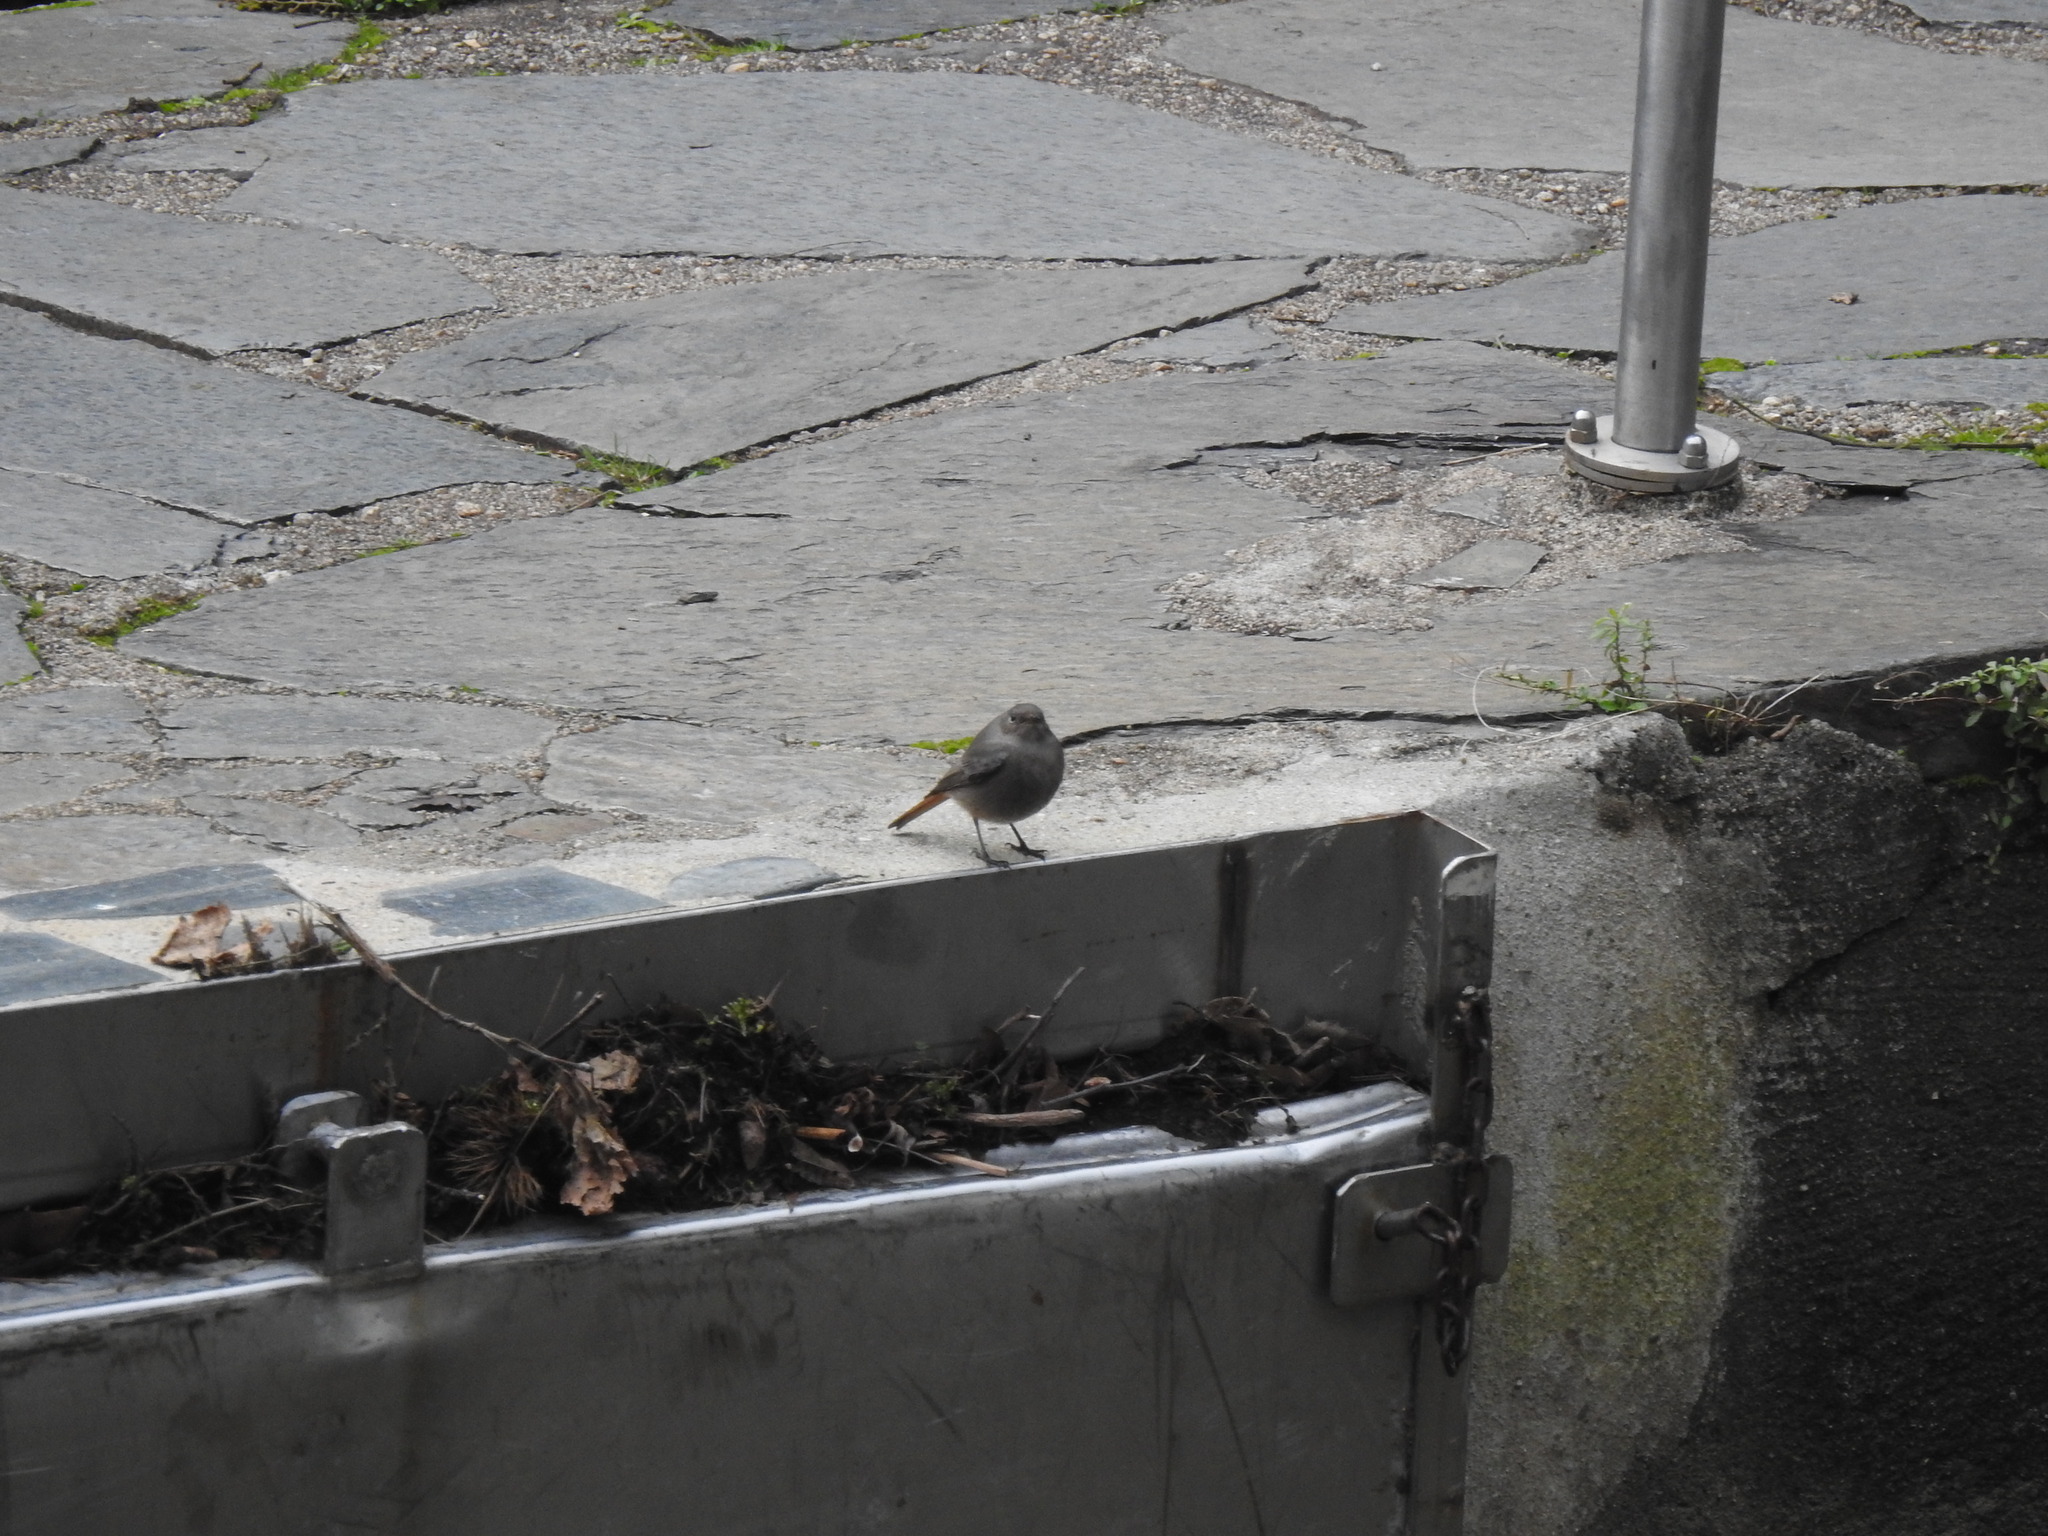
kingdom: Animalia
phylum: Chordata
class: Aves
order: Passeriformes
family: Muscicapidae
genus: Phoenicurus
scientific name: Phoenicurus ochruros
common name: Black redstart
